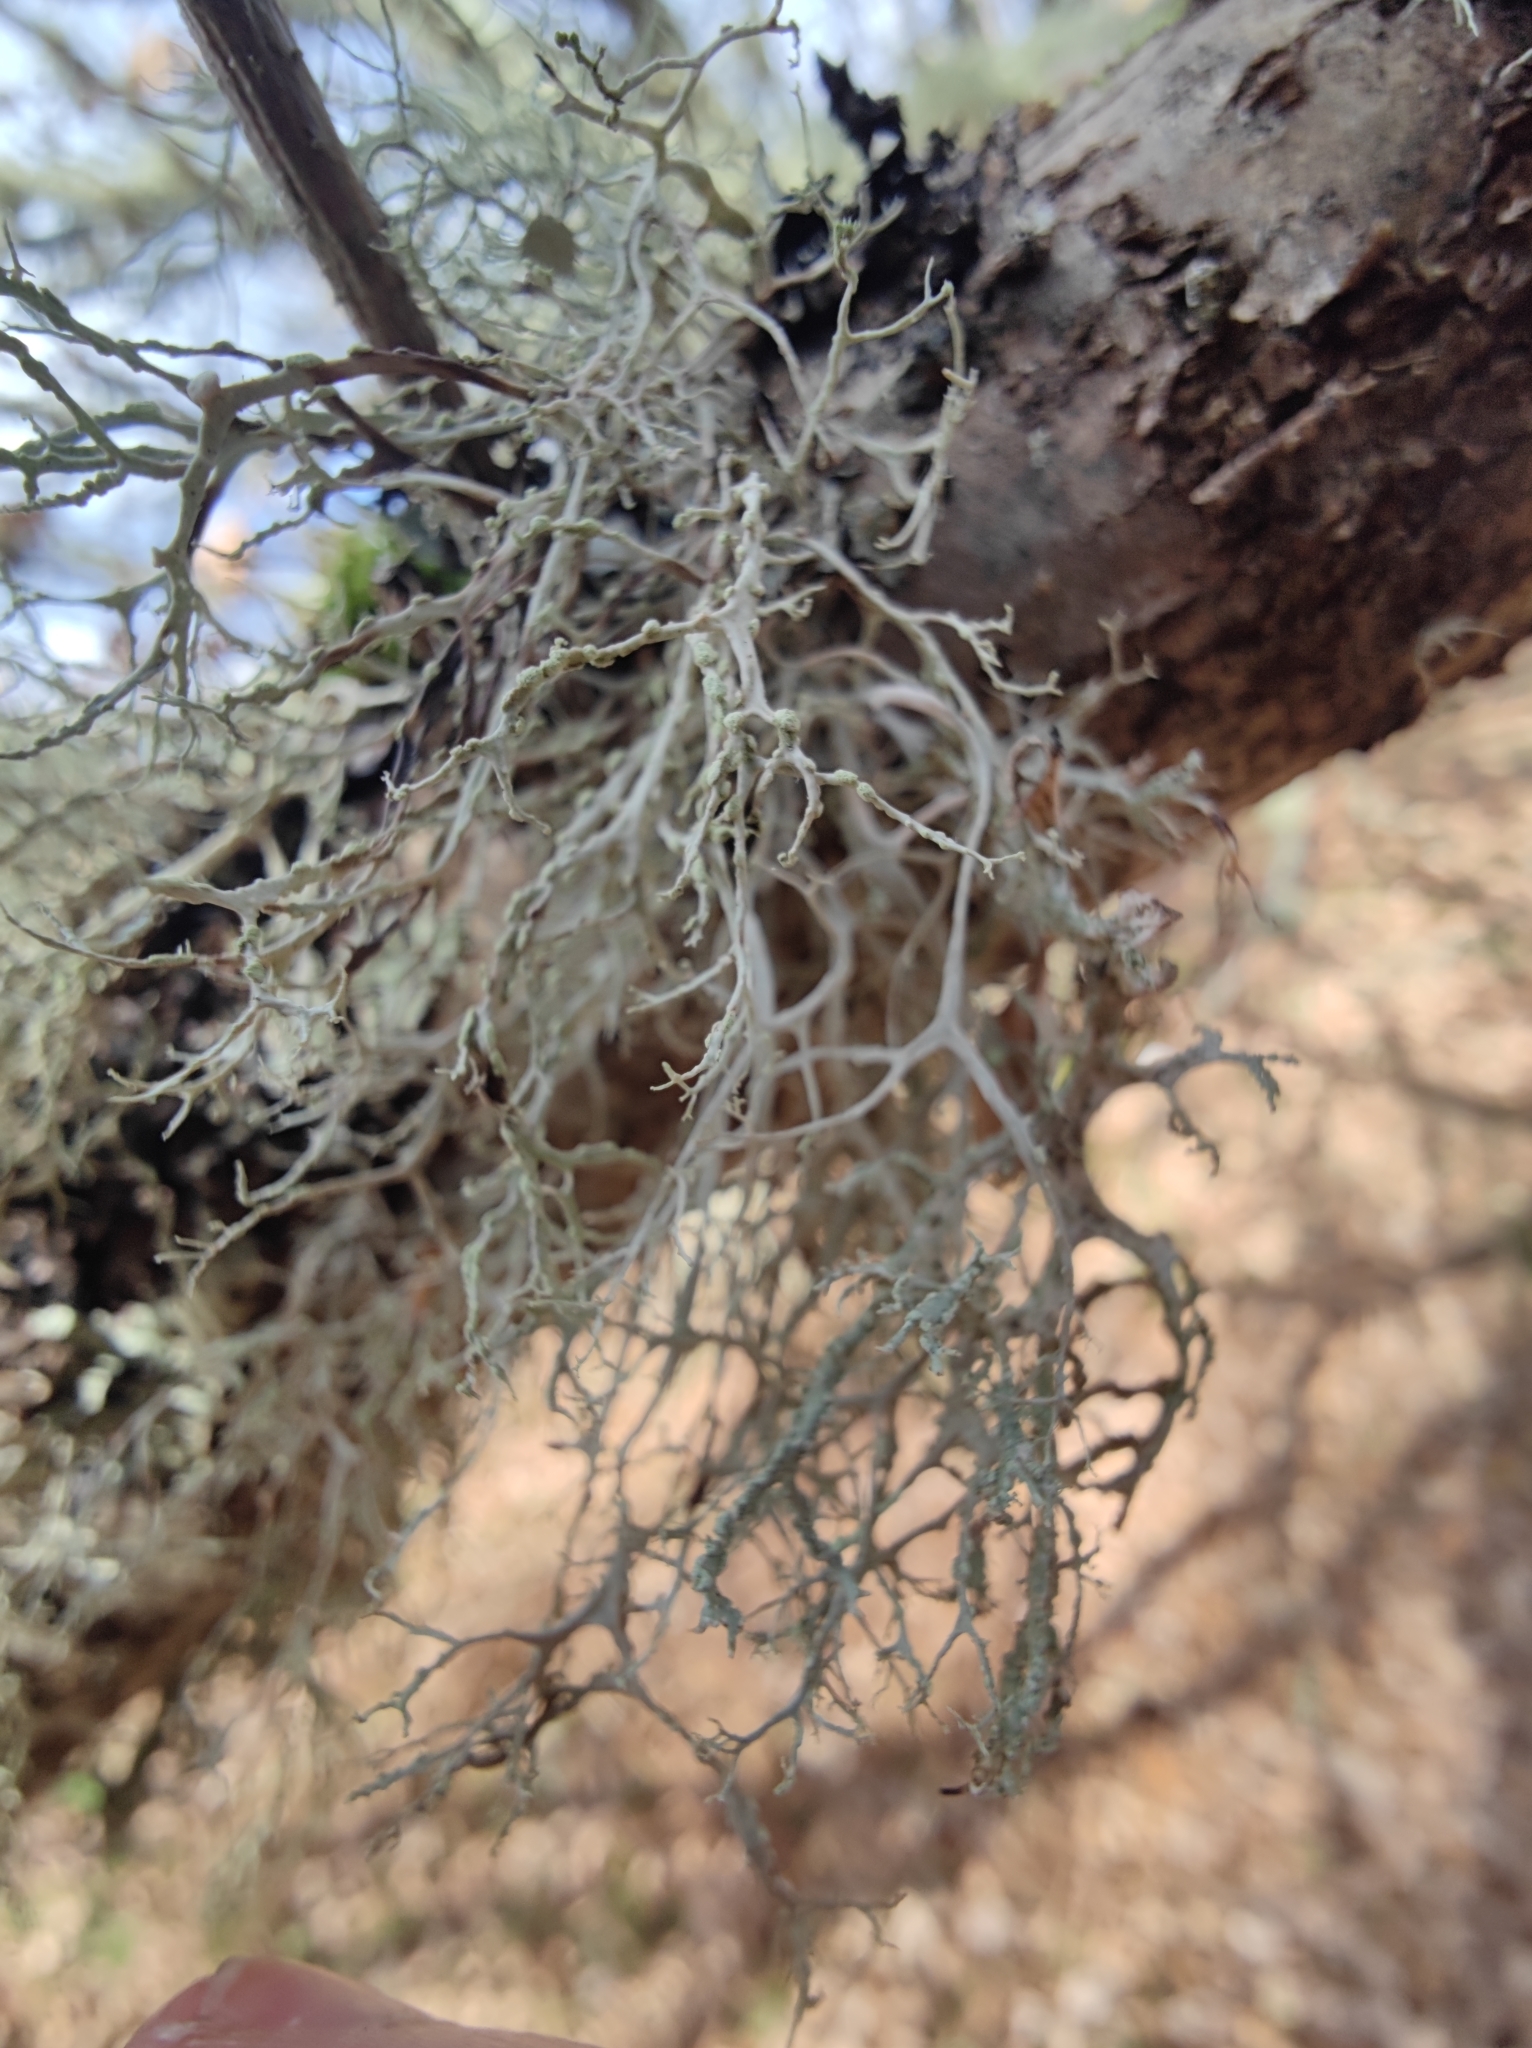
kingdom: Fungi
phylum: Ascomycota
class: Lecanoromycetes
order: Lecanorales
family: Ramalinaceae
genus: Ramalina
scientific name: Ramalina farinacea
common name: Farinose cartilage lichen
